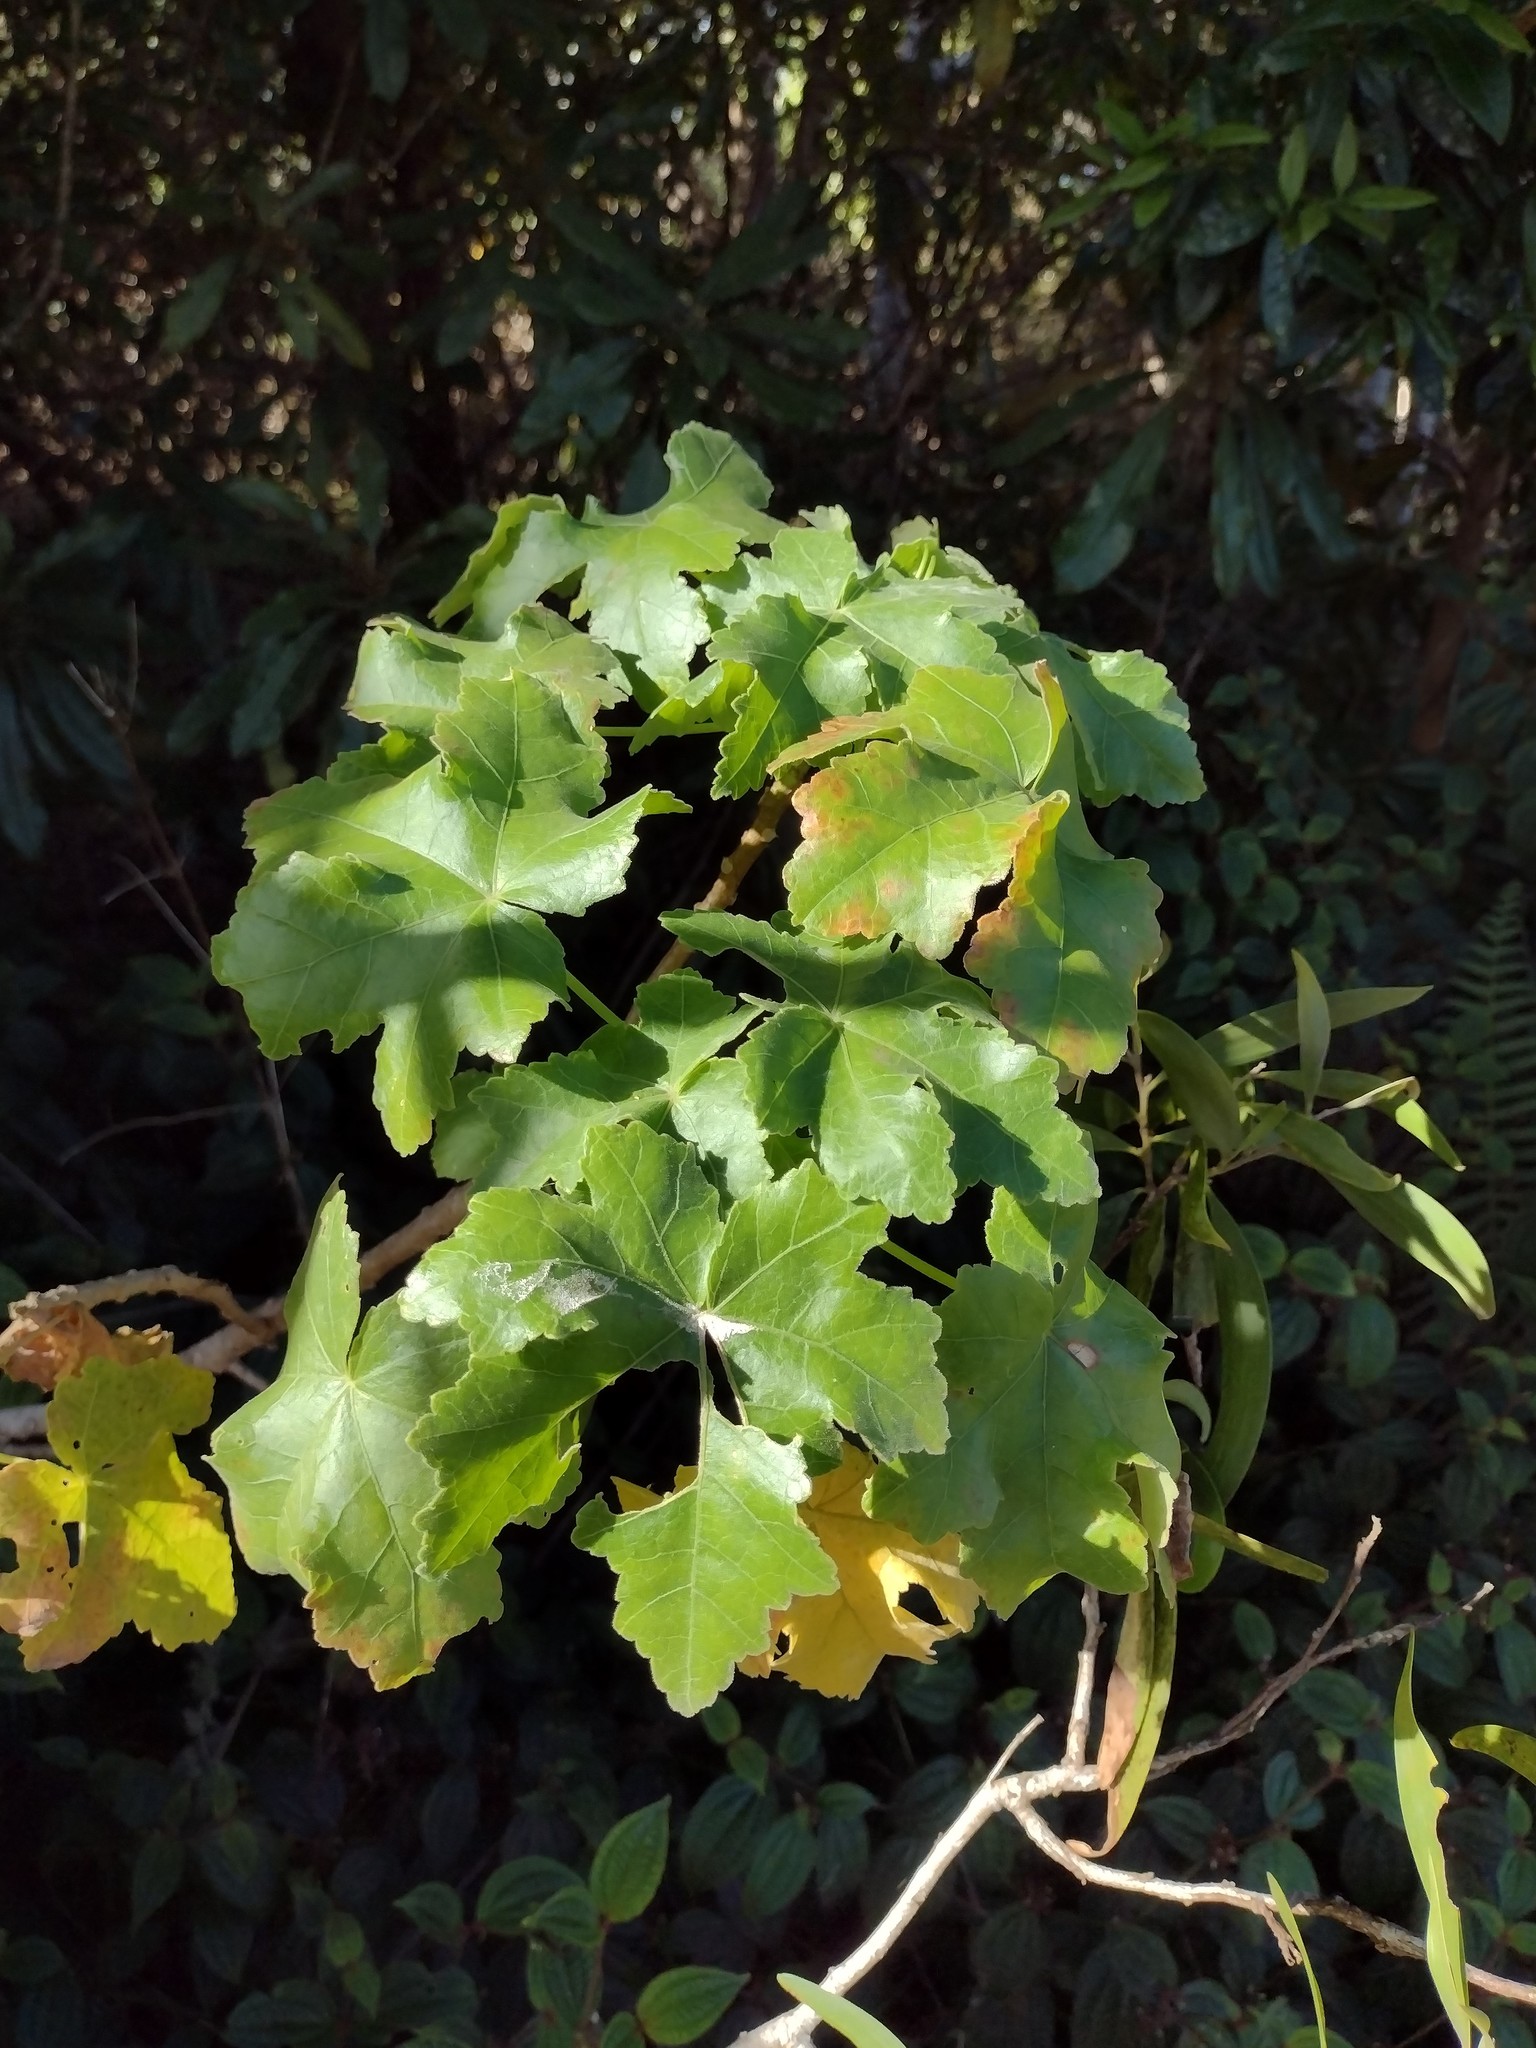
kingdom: Plantae
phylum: Tracheophyta
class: Magnoliopsida
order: Malvales
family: Malvaceae
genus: Hibiscus
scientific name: Hibiscus brackenridgei
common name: Native yellow hibiscus
